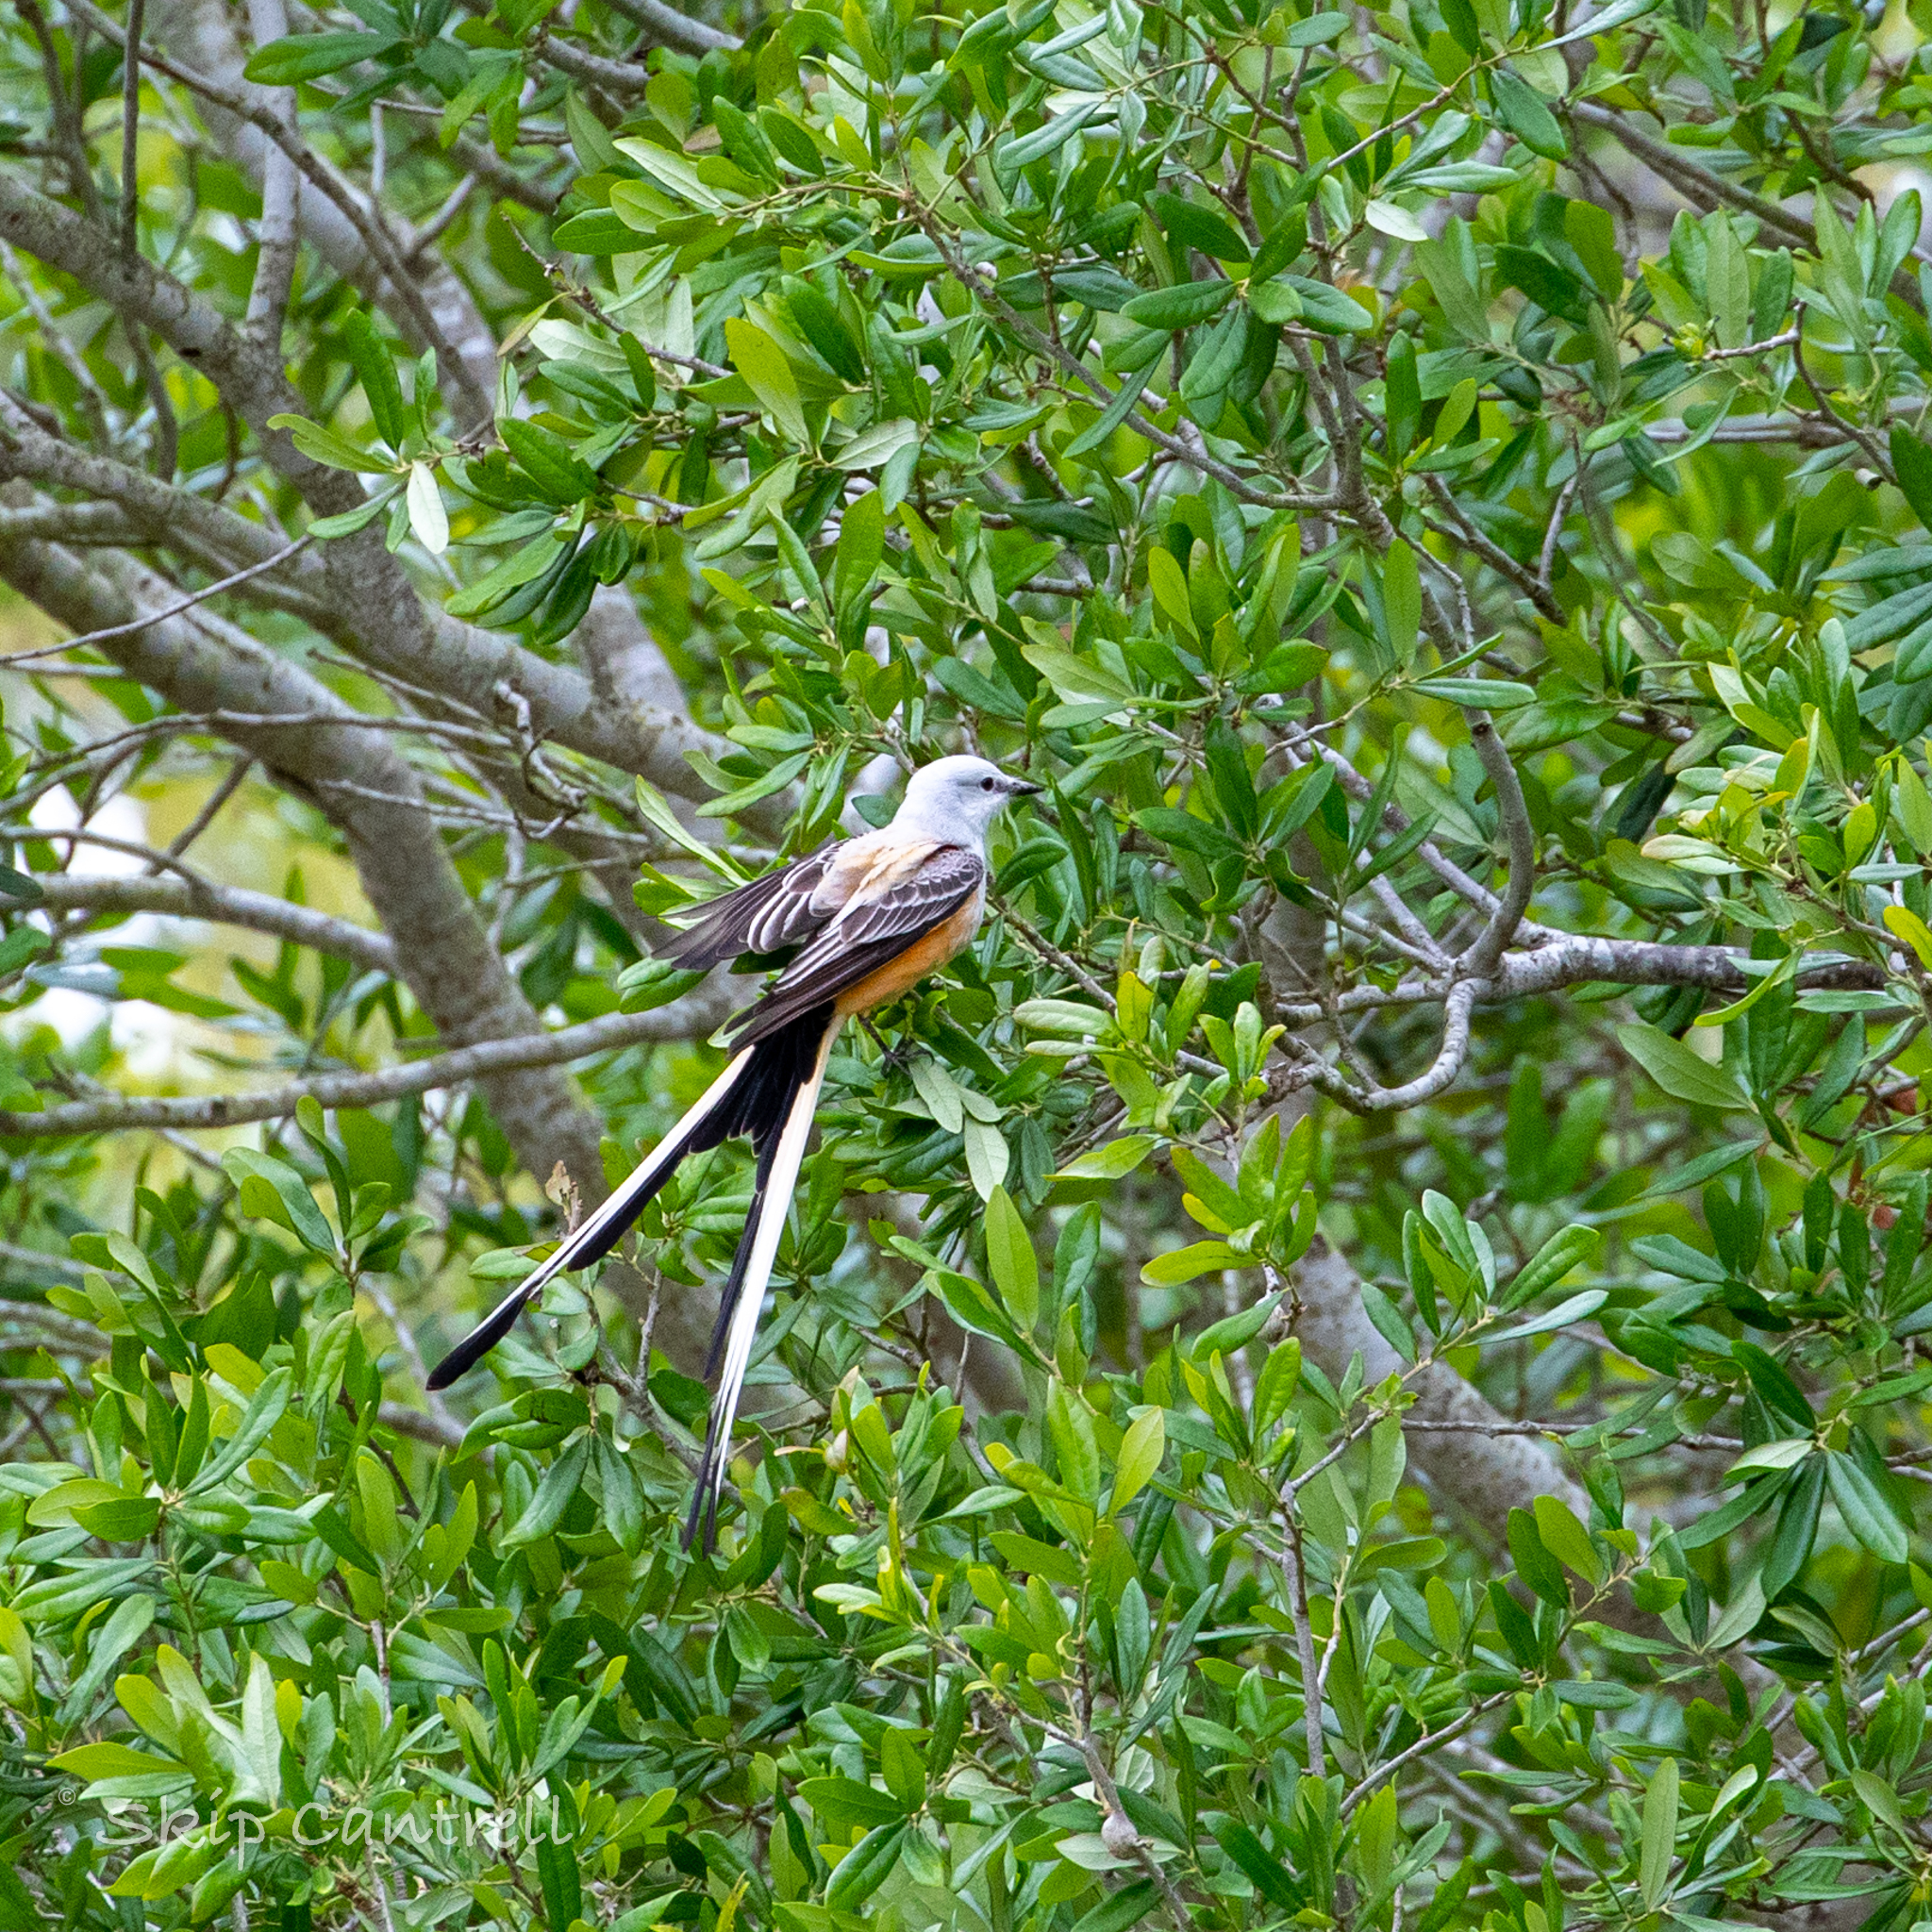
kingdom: Animalia
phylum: Chordata
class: Aves
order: Passeriformes
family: Tyrannidae
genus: Tyrannus
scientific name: Tyrannus forficatus
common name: Scissor-tailed flycatcher
